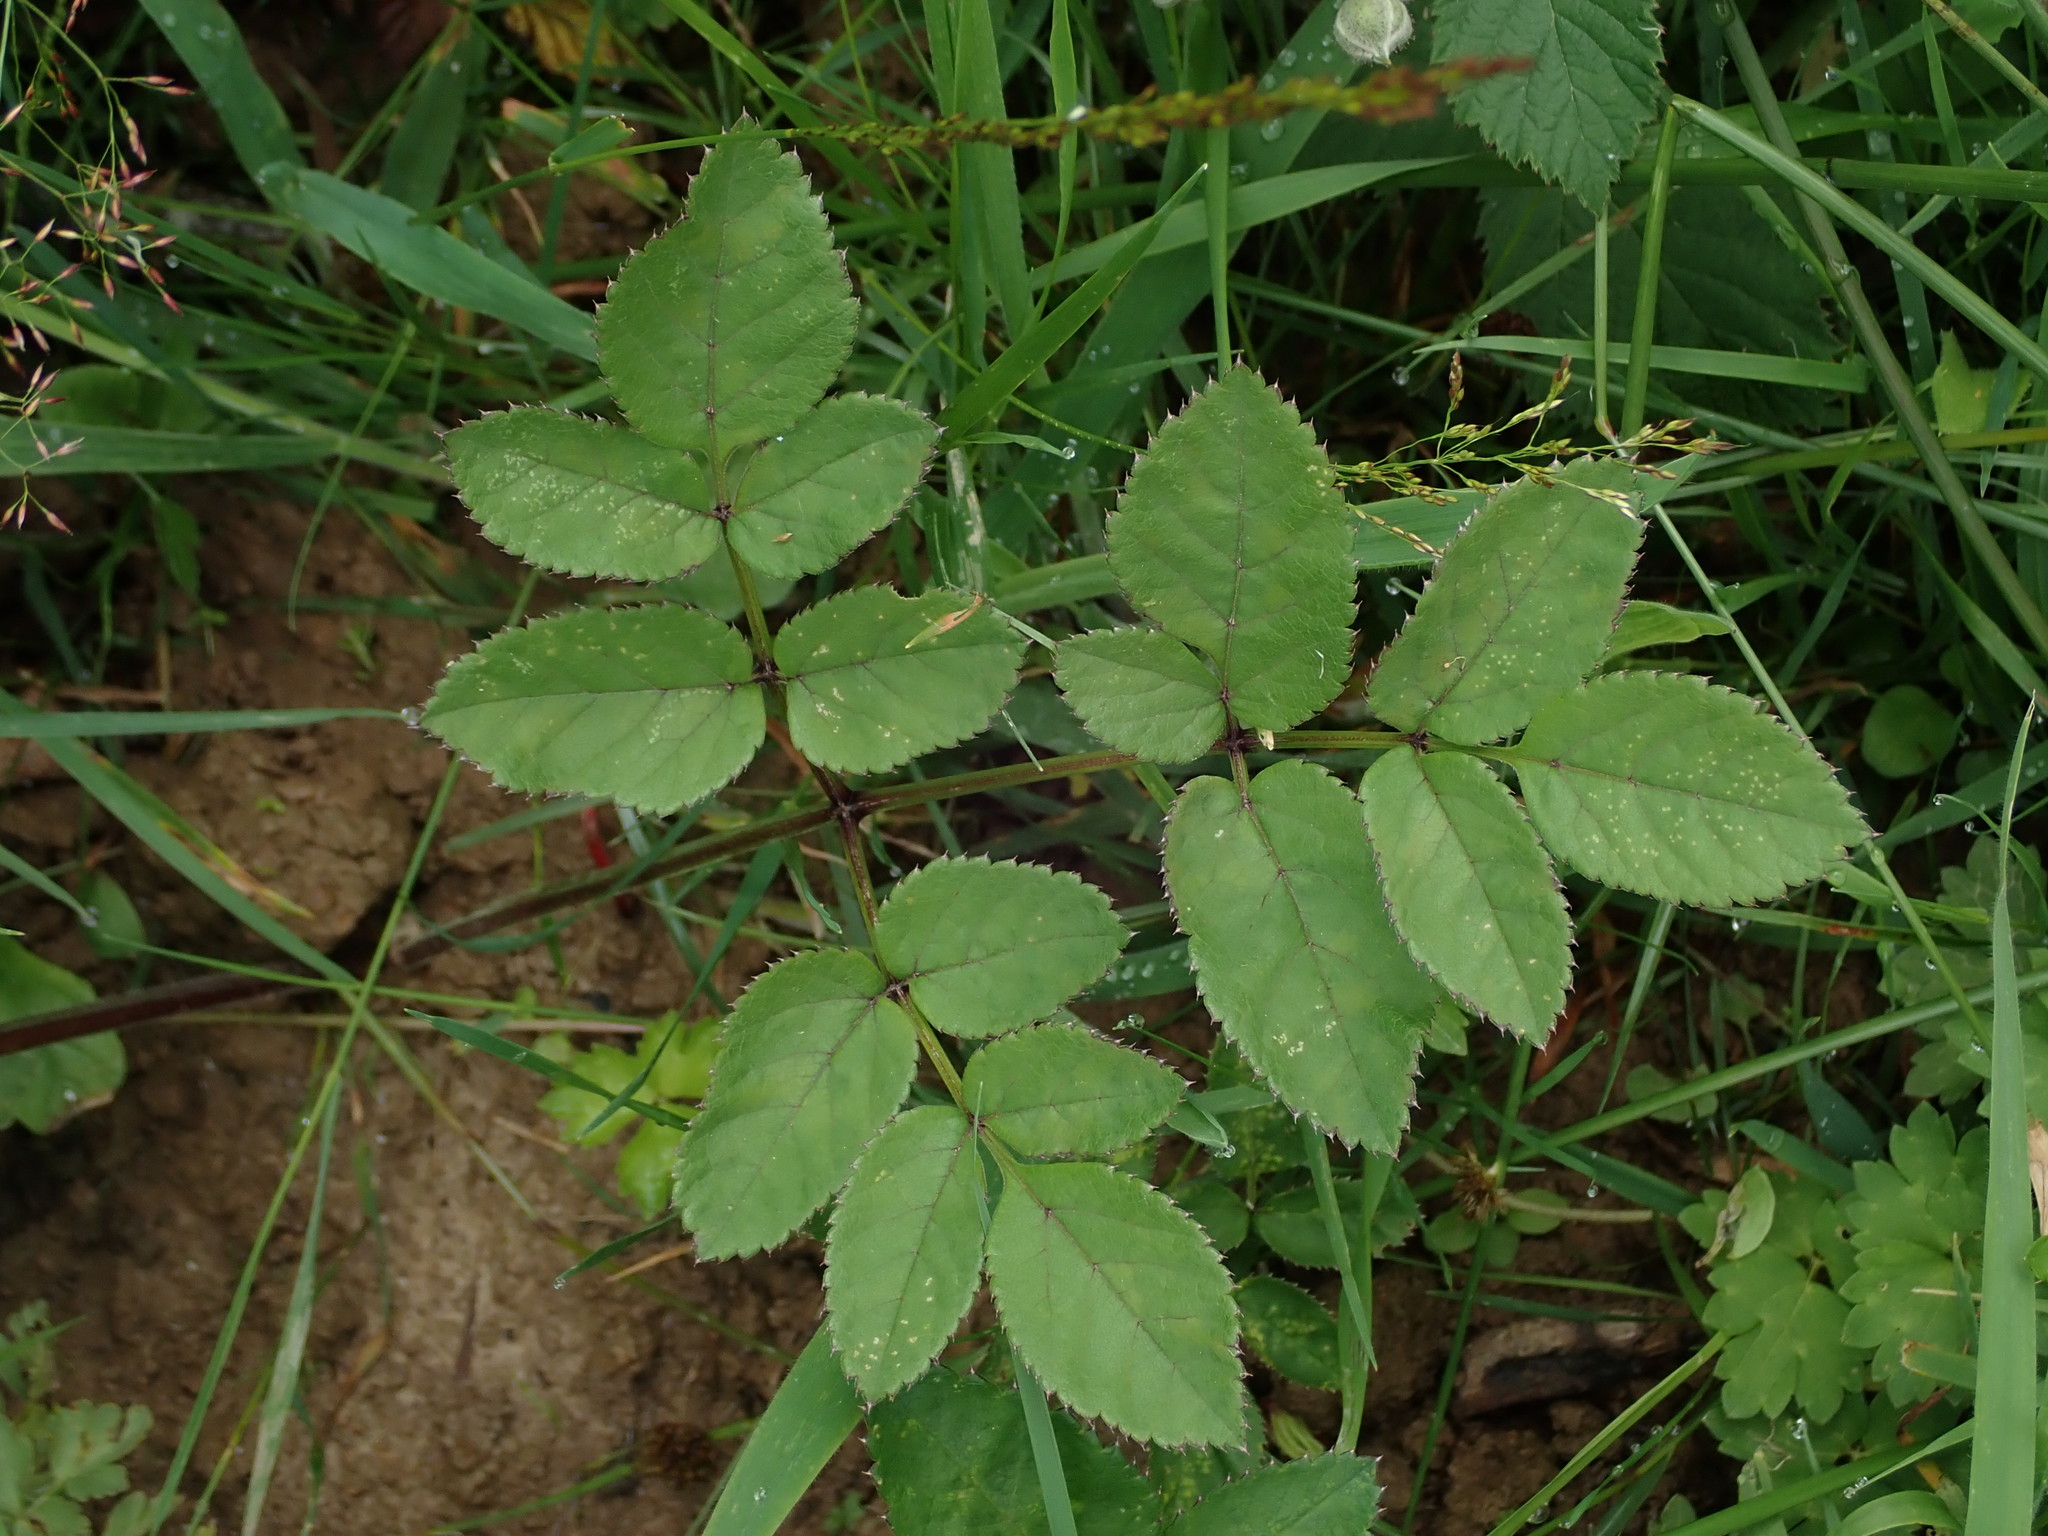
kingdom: Plantae
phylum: Tracheophyta
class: Magnoliopsida
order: Apiales
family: Apiaceae
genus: Angelica
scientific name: Angelica sylvestris
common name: Wild angelica
